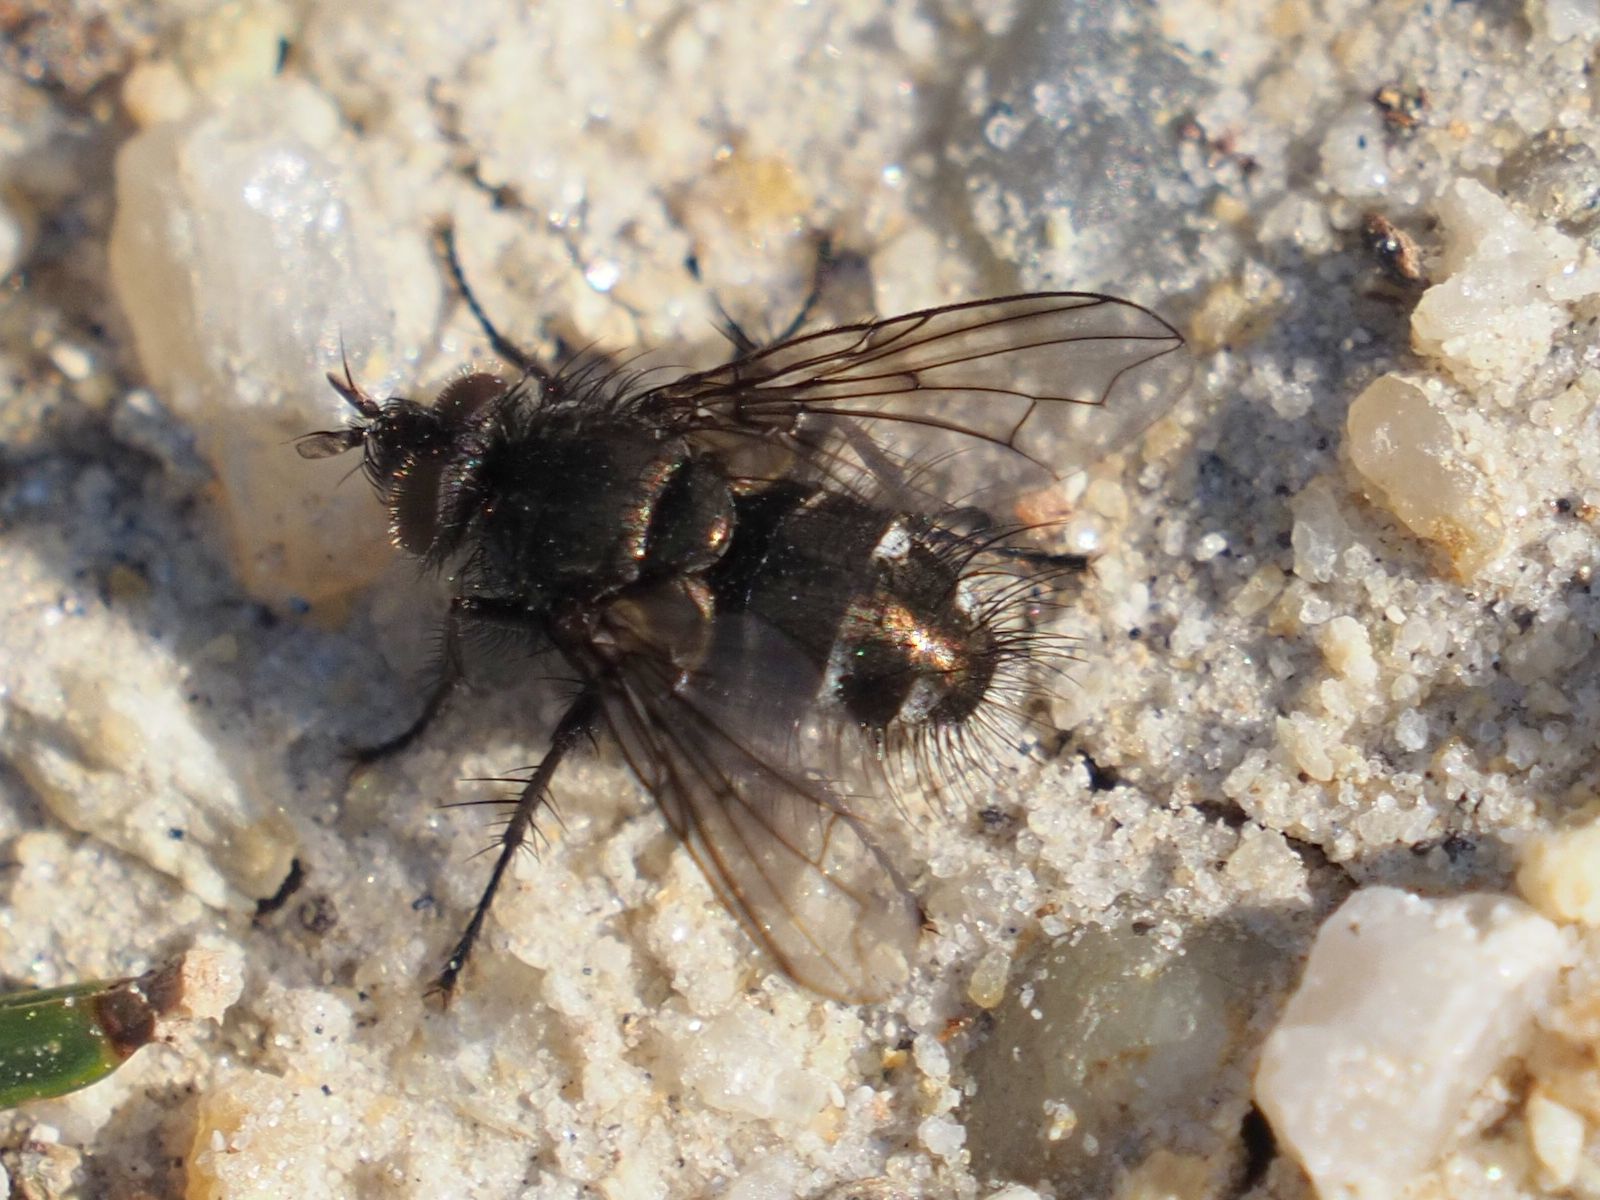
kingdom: Animalia
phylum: Arthropoda
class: Insecta
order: Diptera
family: Tachinidae
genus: Lypha
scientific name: Lypha dubia
